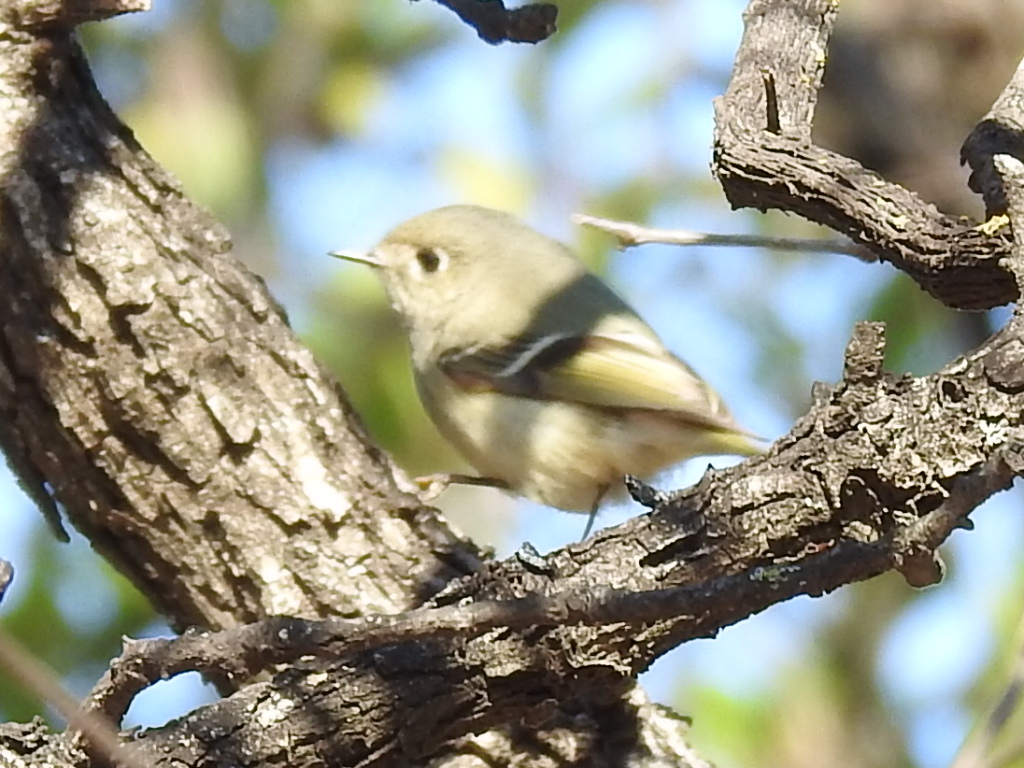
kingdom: Animalia
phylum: Chordata
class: Aves
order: Passeriformes
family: Regulidae
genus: Regulus
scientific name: Regulus calendula
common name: Ruby-crowned kinglet
